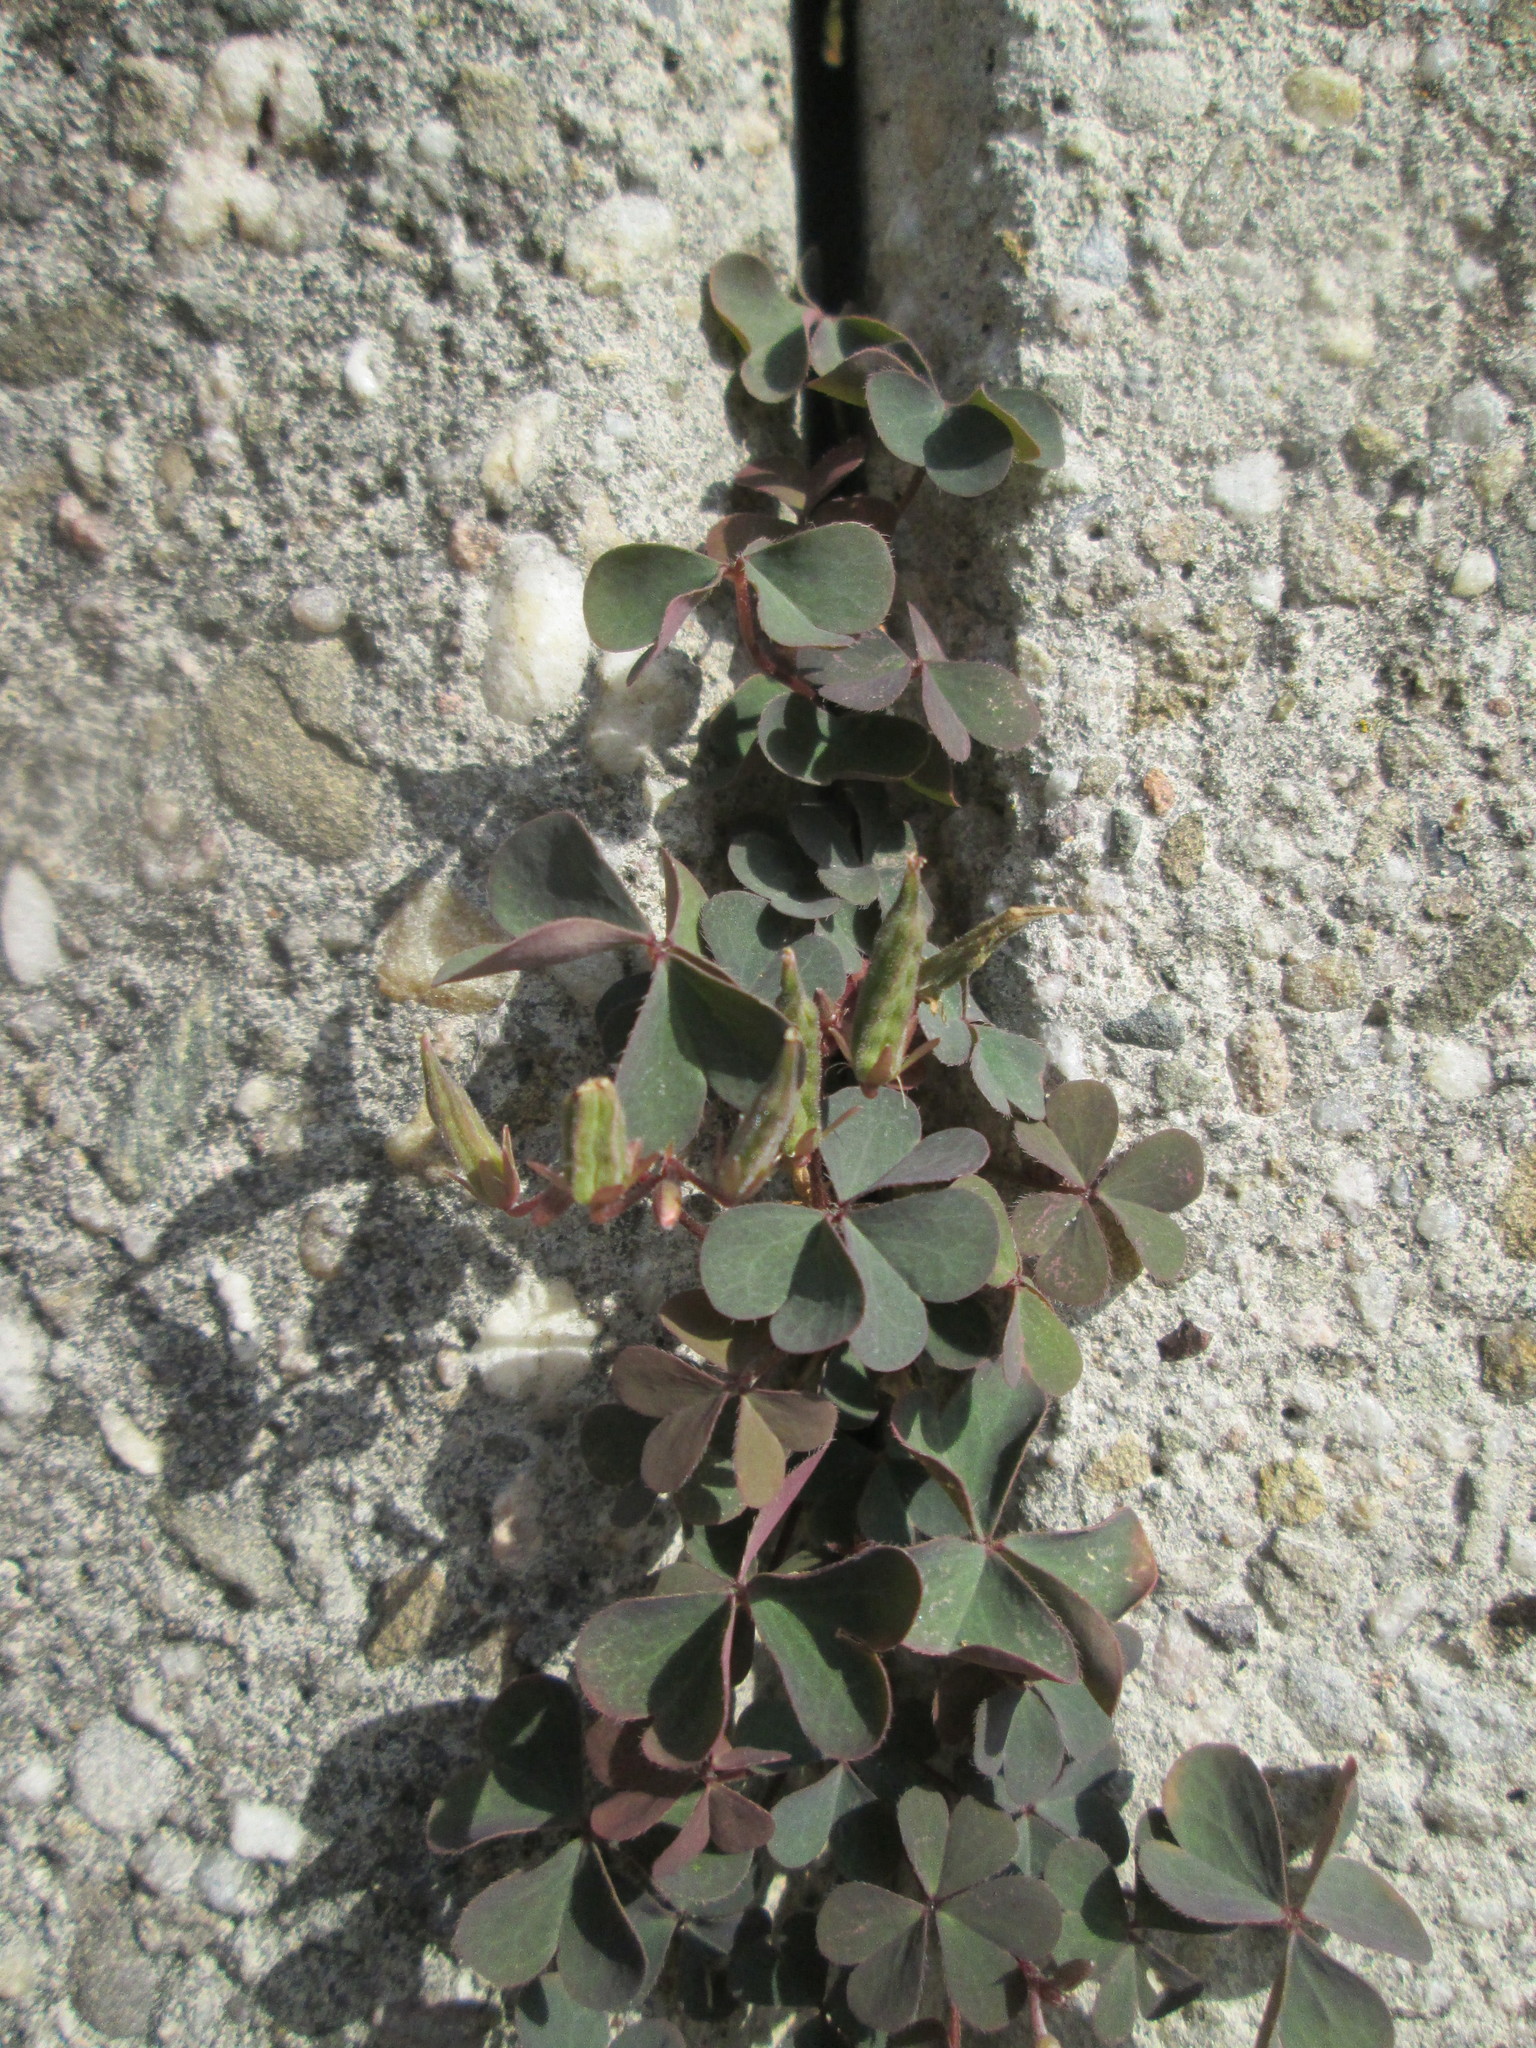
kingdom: Plantae
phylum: Tracheophyta
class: Magnoliopsida
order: Oxalidales
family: Oxalidaceae
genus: Oxalis
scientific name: Oxalis corniculata
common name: Procumbent yellow-sorrel
